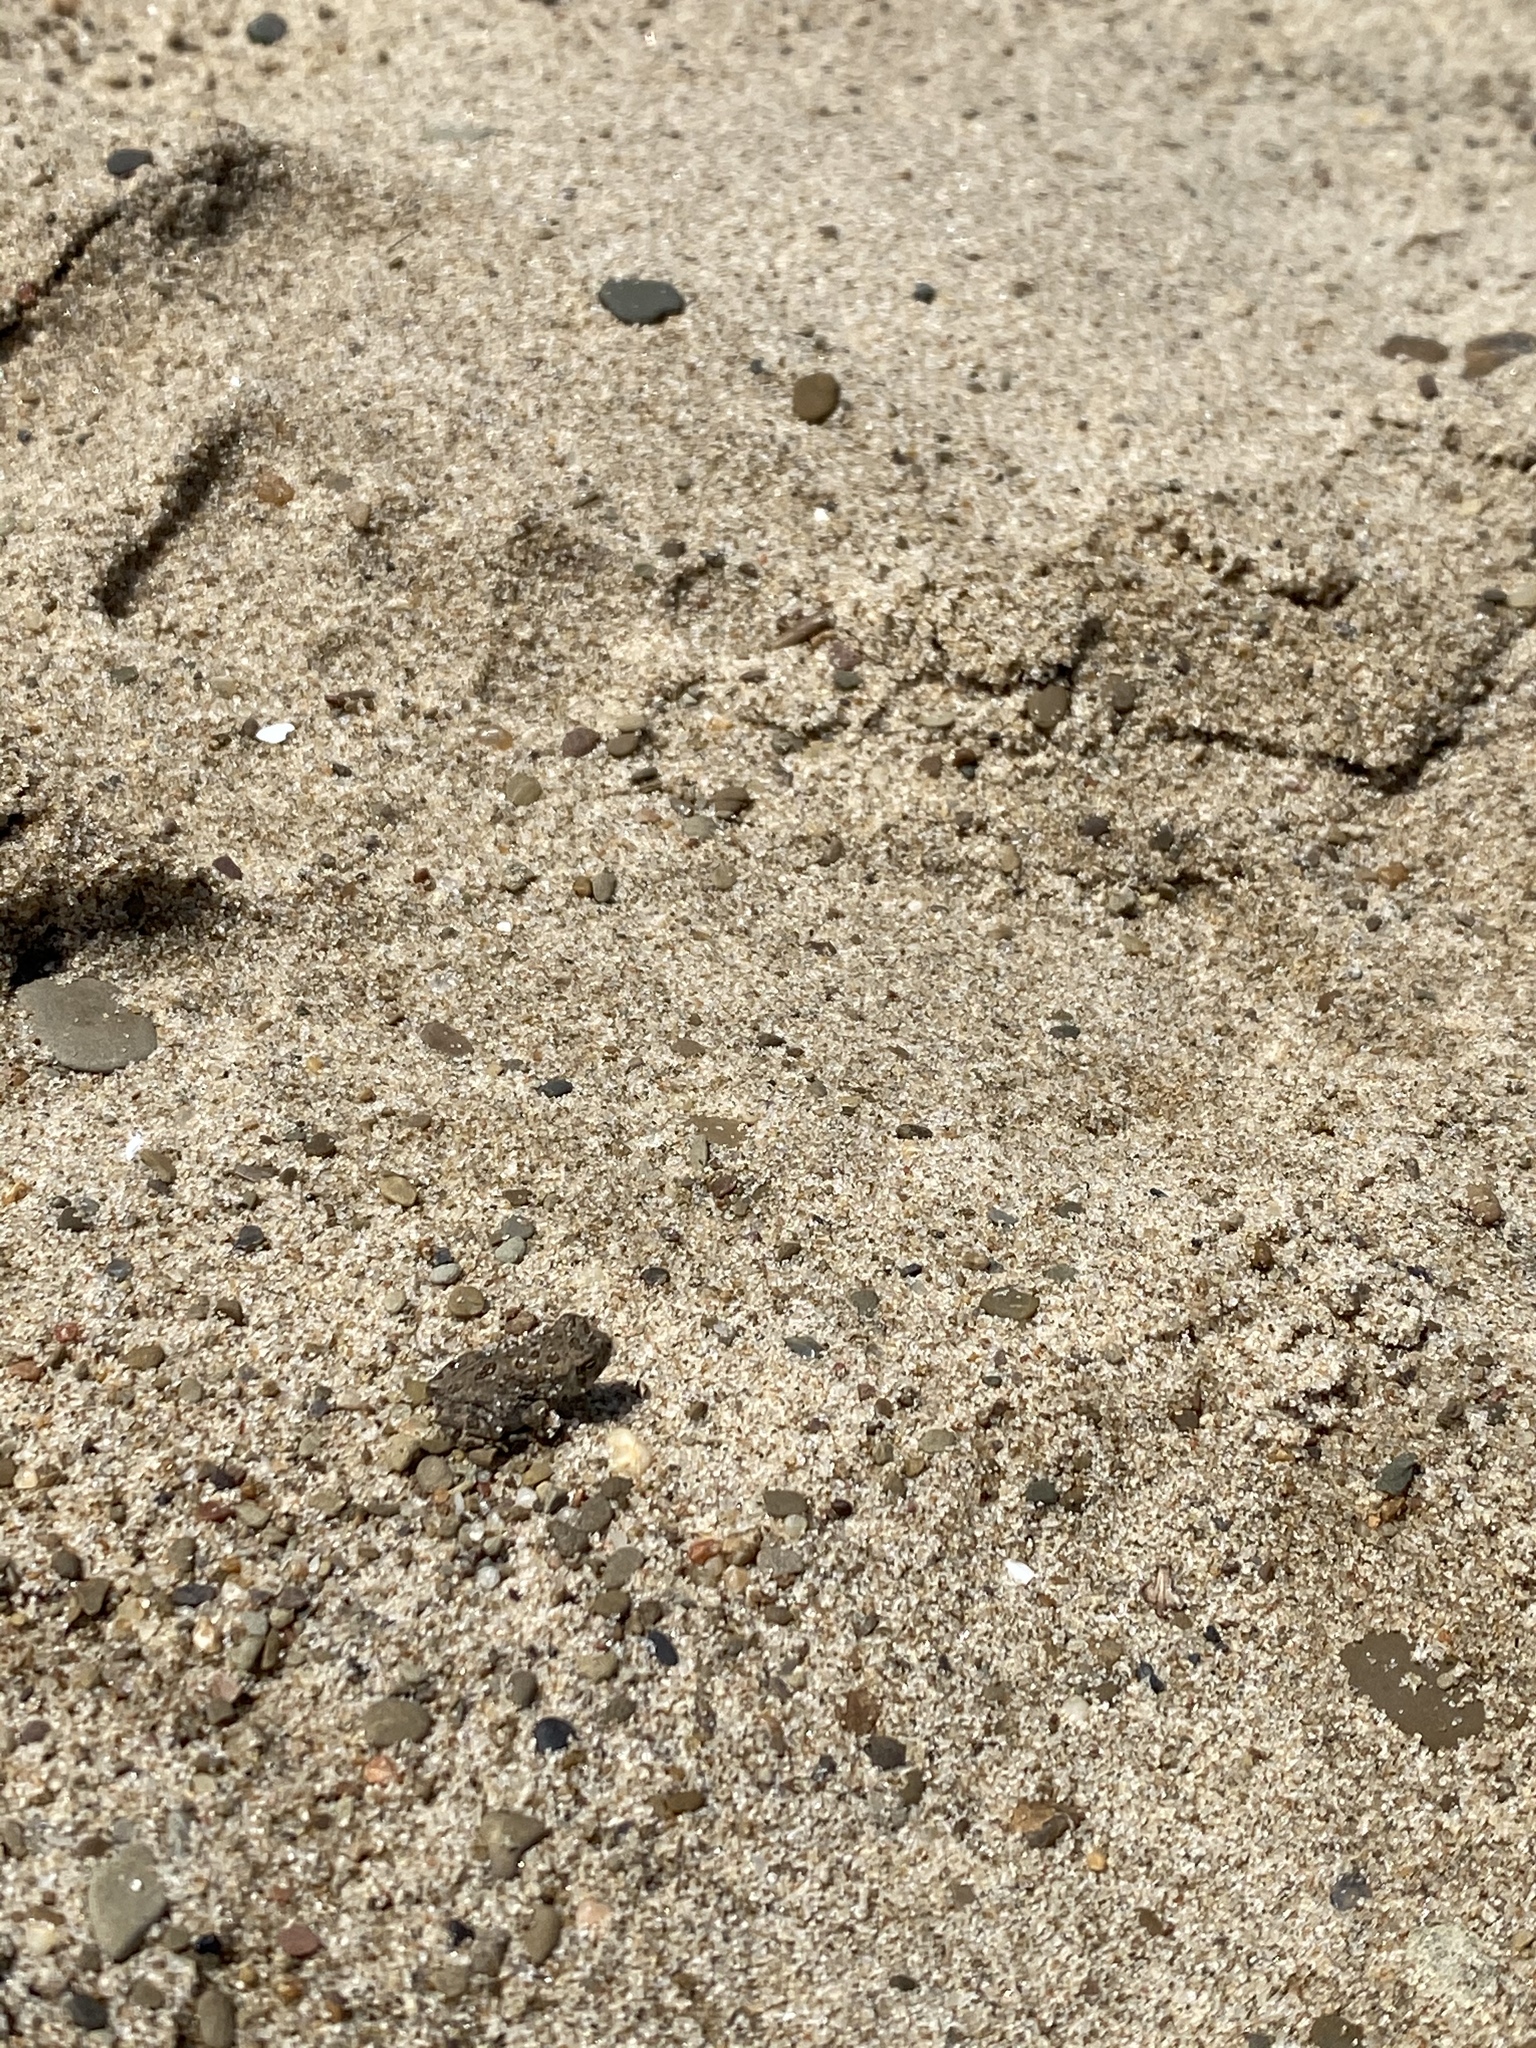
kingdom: Animalia
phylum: Chordata
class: Amphibia
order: Anura
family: Bufonidae
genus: Anaxyrus
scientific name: Anaxyrus fowleri
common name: Fowler's toad
